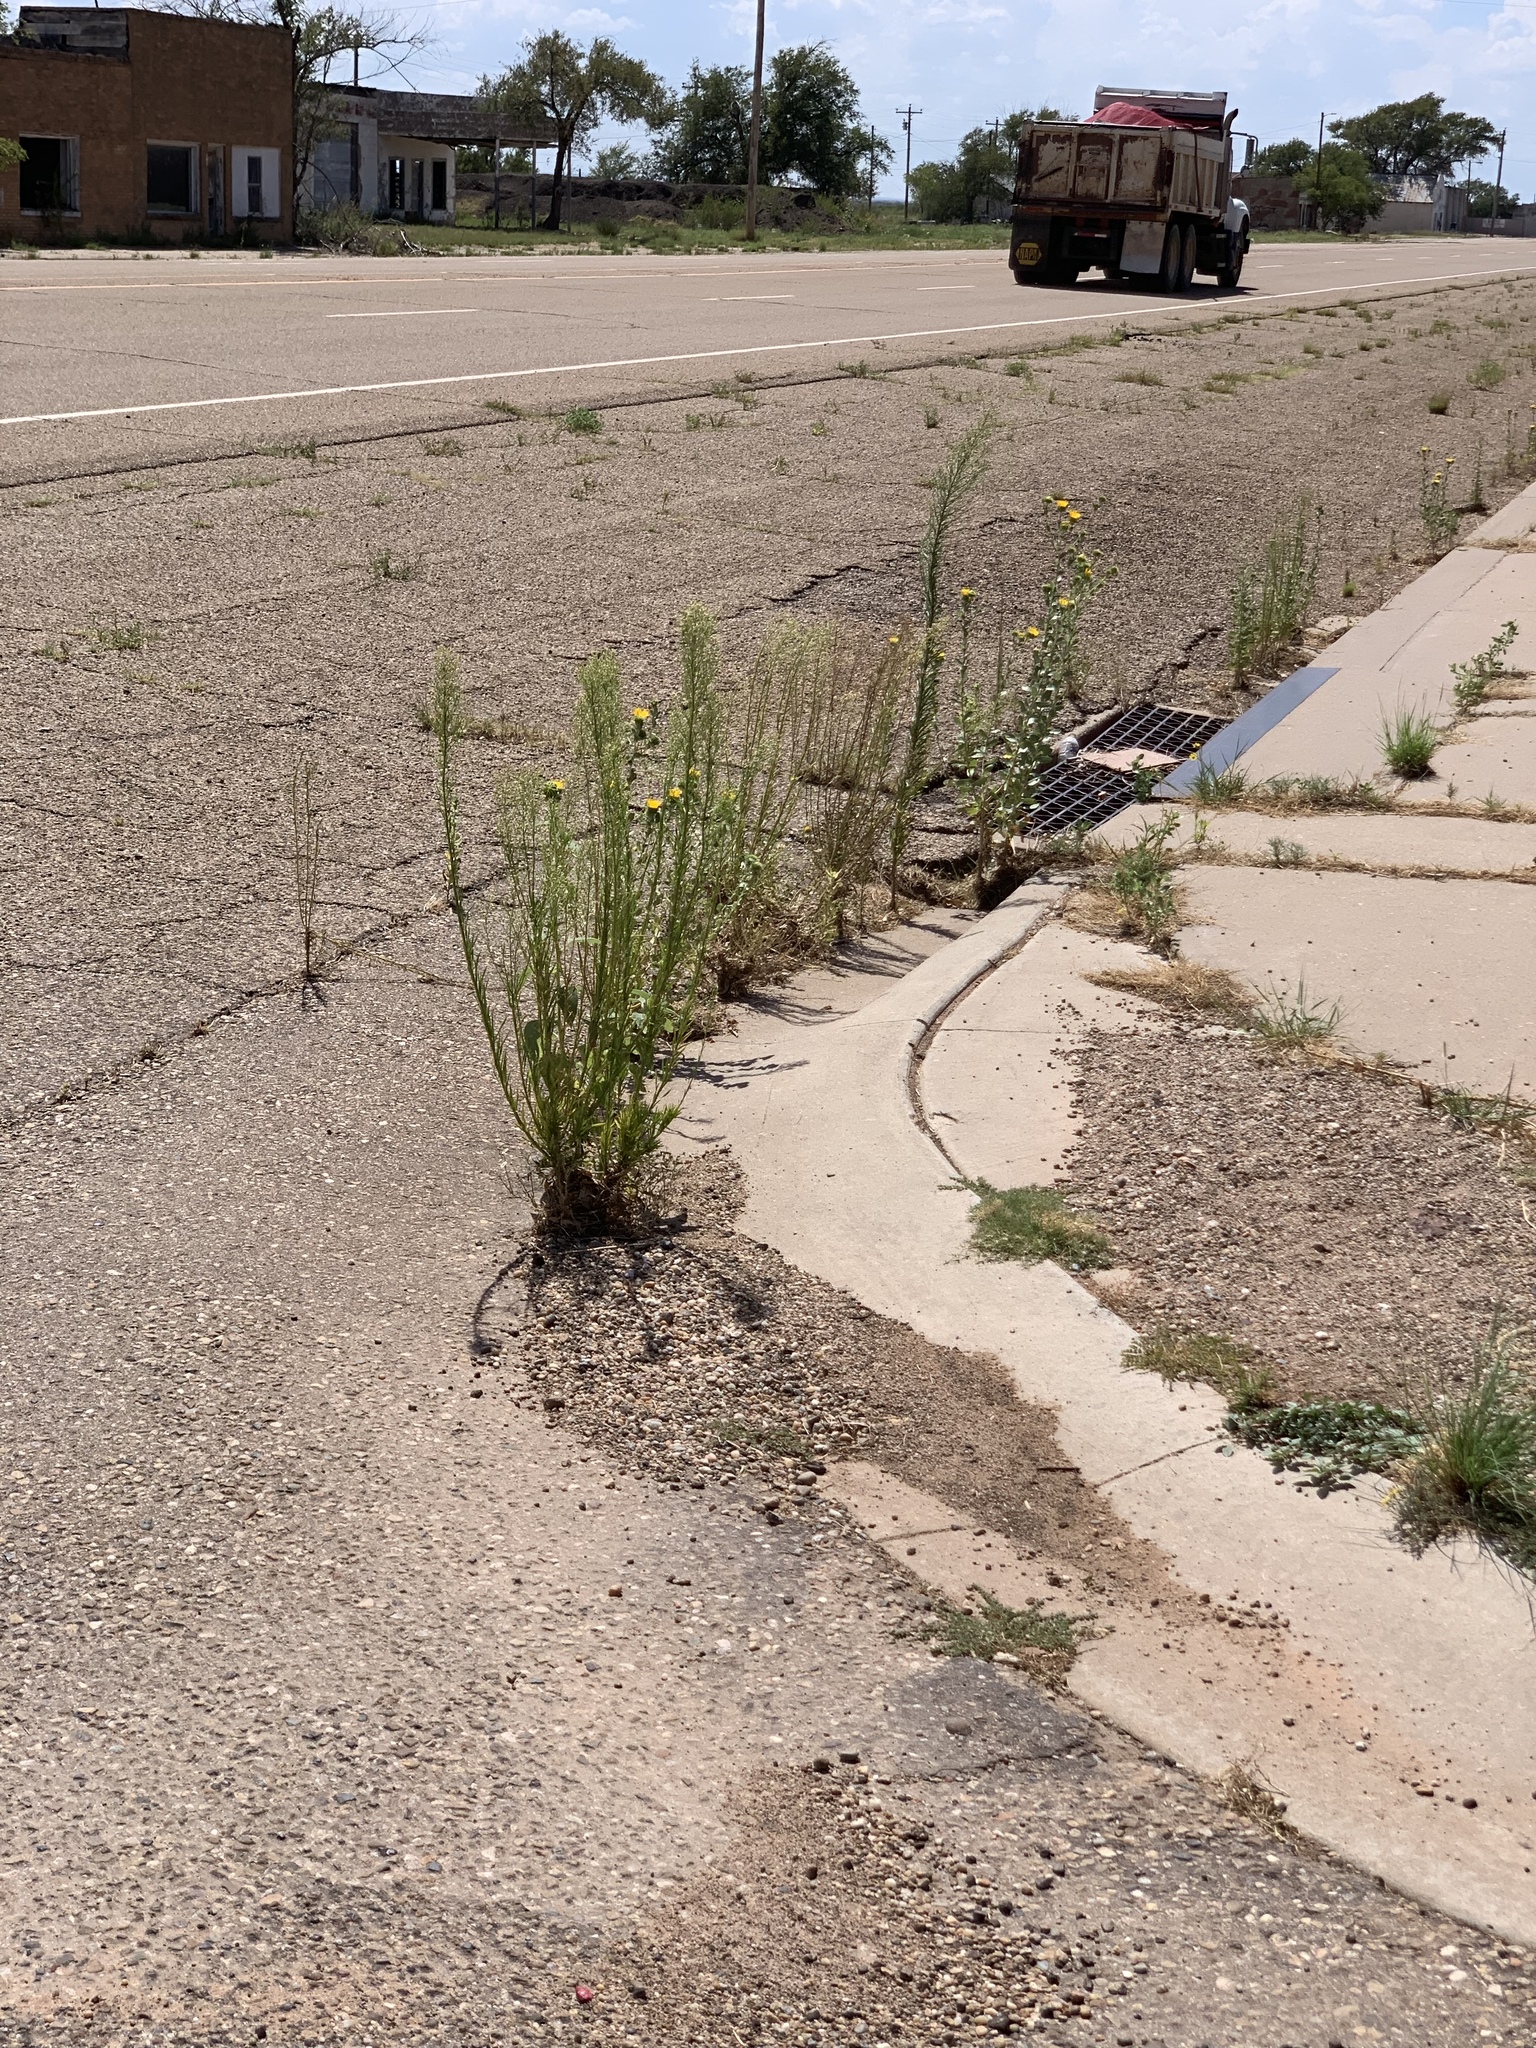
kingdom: Plantae
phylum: Tracheophyta
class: Magnoliopsida
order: Asterales
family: Asteraceae
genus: Erigeron
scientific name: Erigeron canadensis
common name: Canadian fleabane
